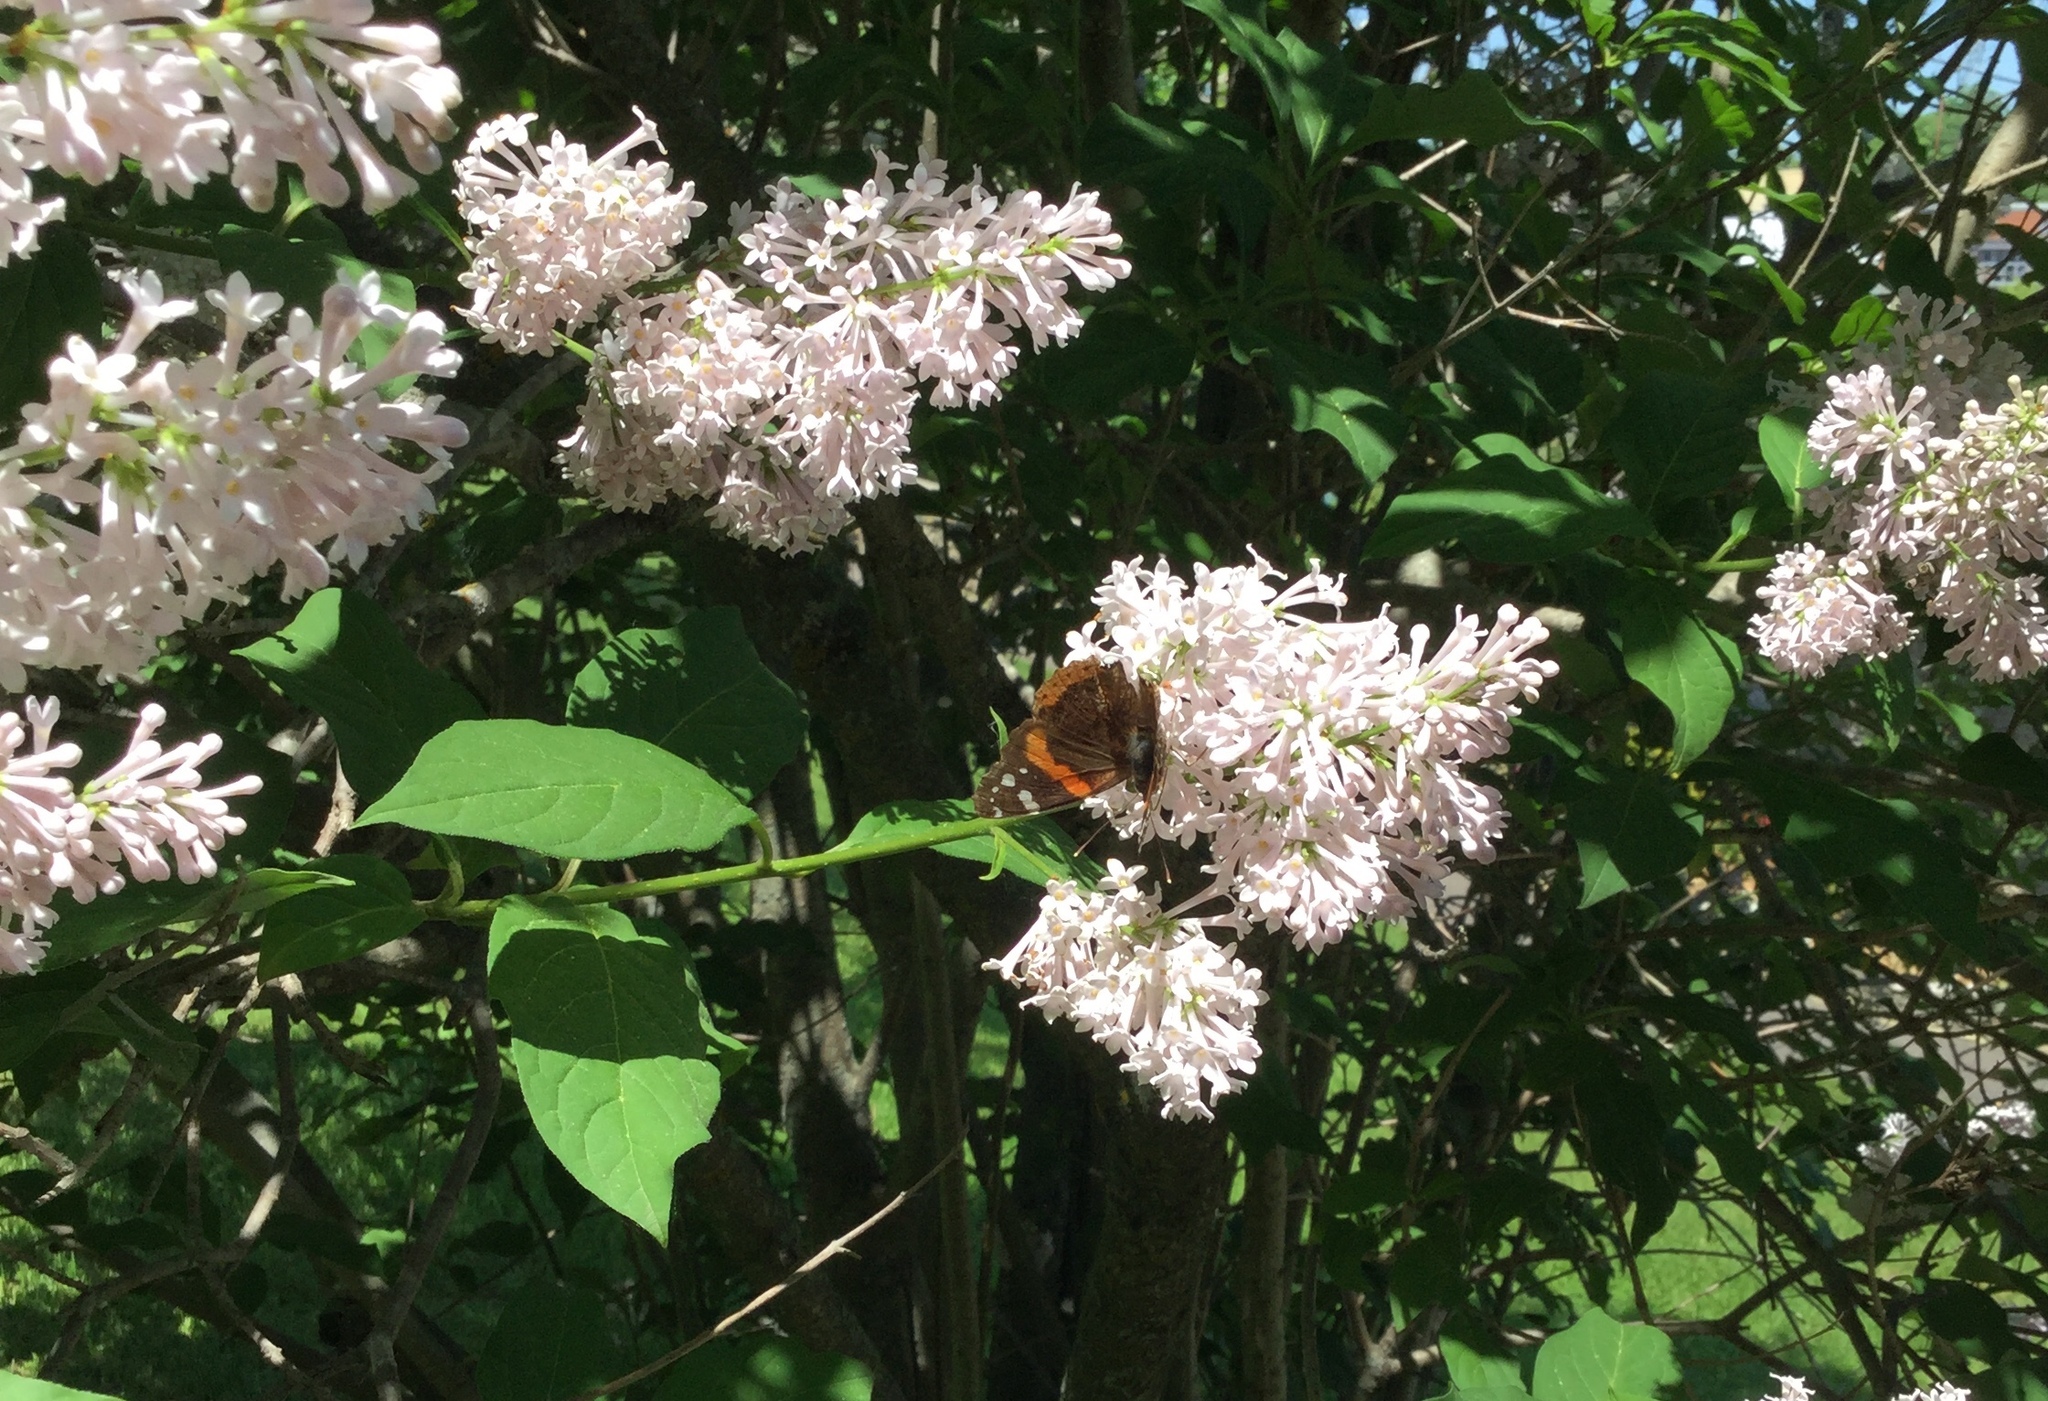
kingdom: Animalia
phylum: Arthropoda
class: Insecta
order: Lepidoptera
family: Nymphalidae
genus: Vanessa
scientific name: Vanessa atalanta
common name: Red admiral
